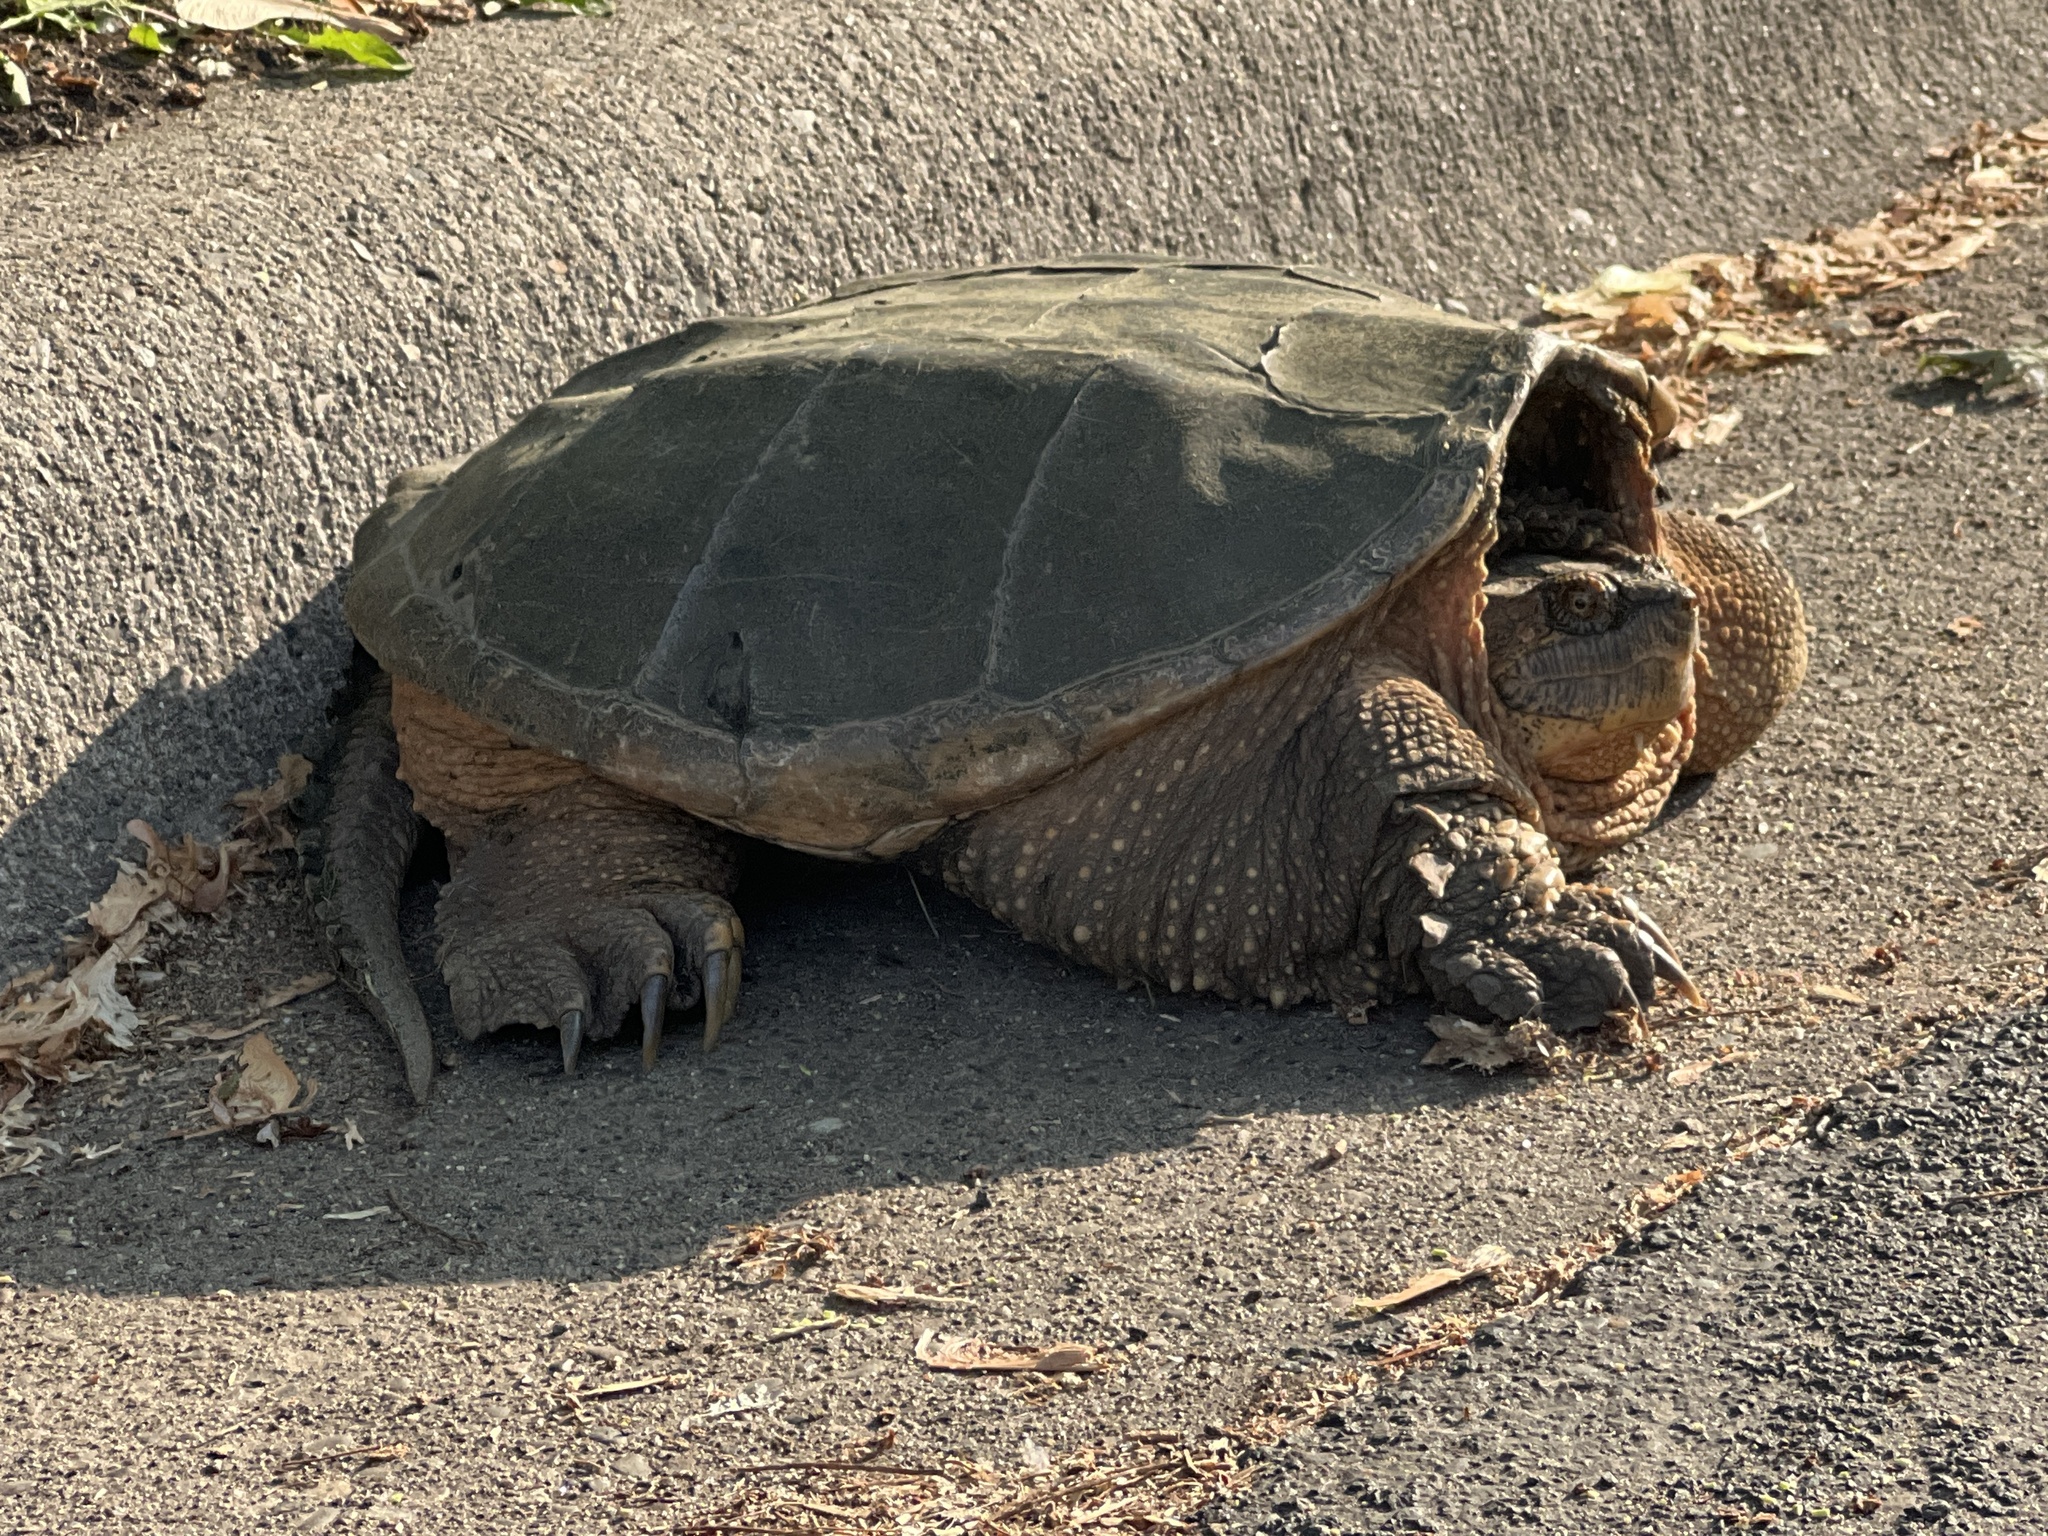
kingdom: Animalia
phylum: Chordata
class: Testudines
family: Chelydridae
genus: Chelydra
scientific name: Chelydra serpentina
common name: Common snapping turtle
